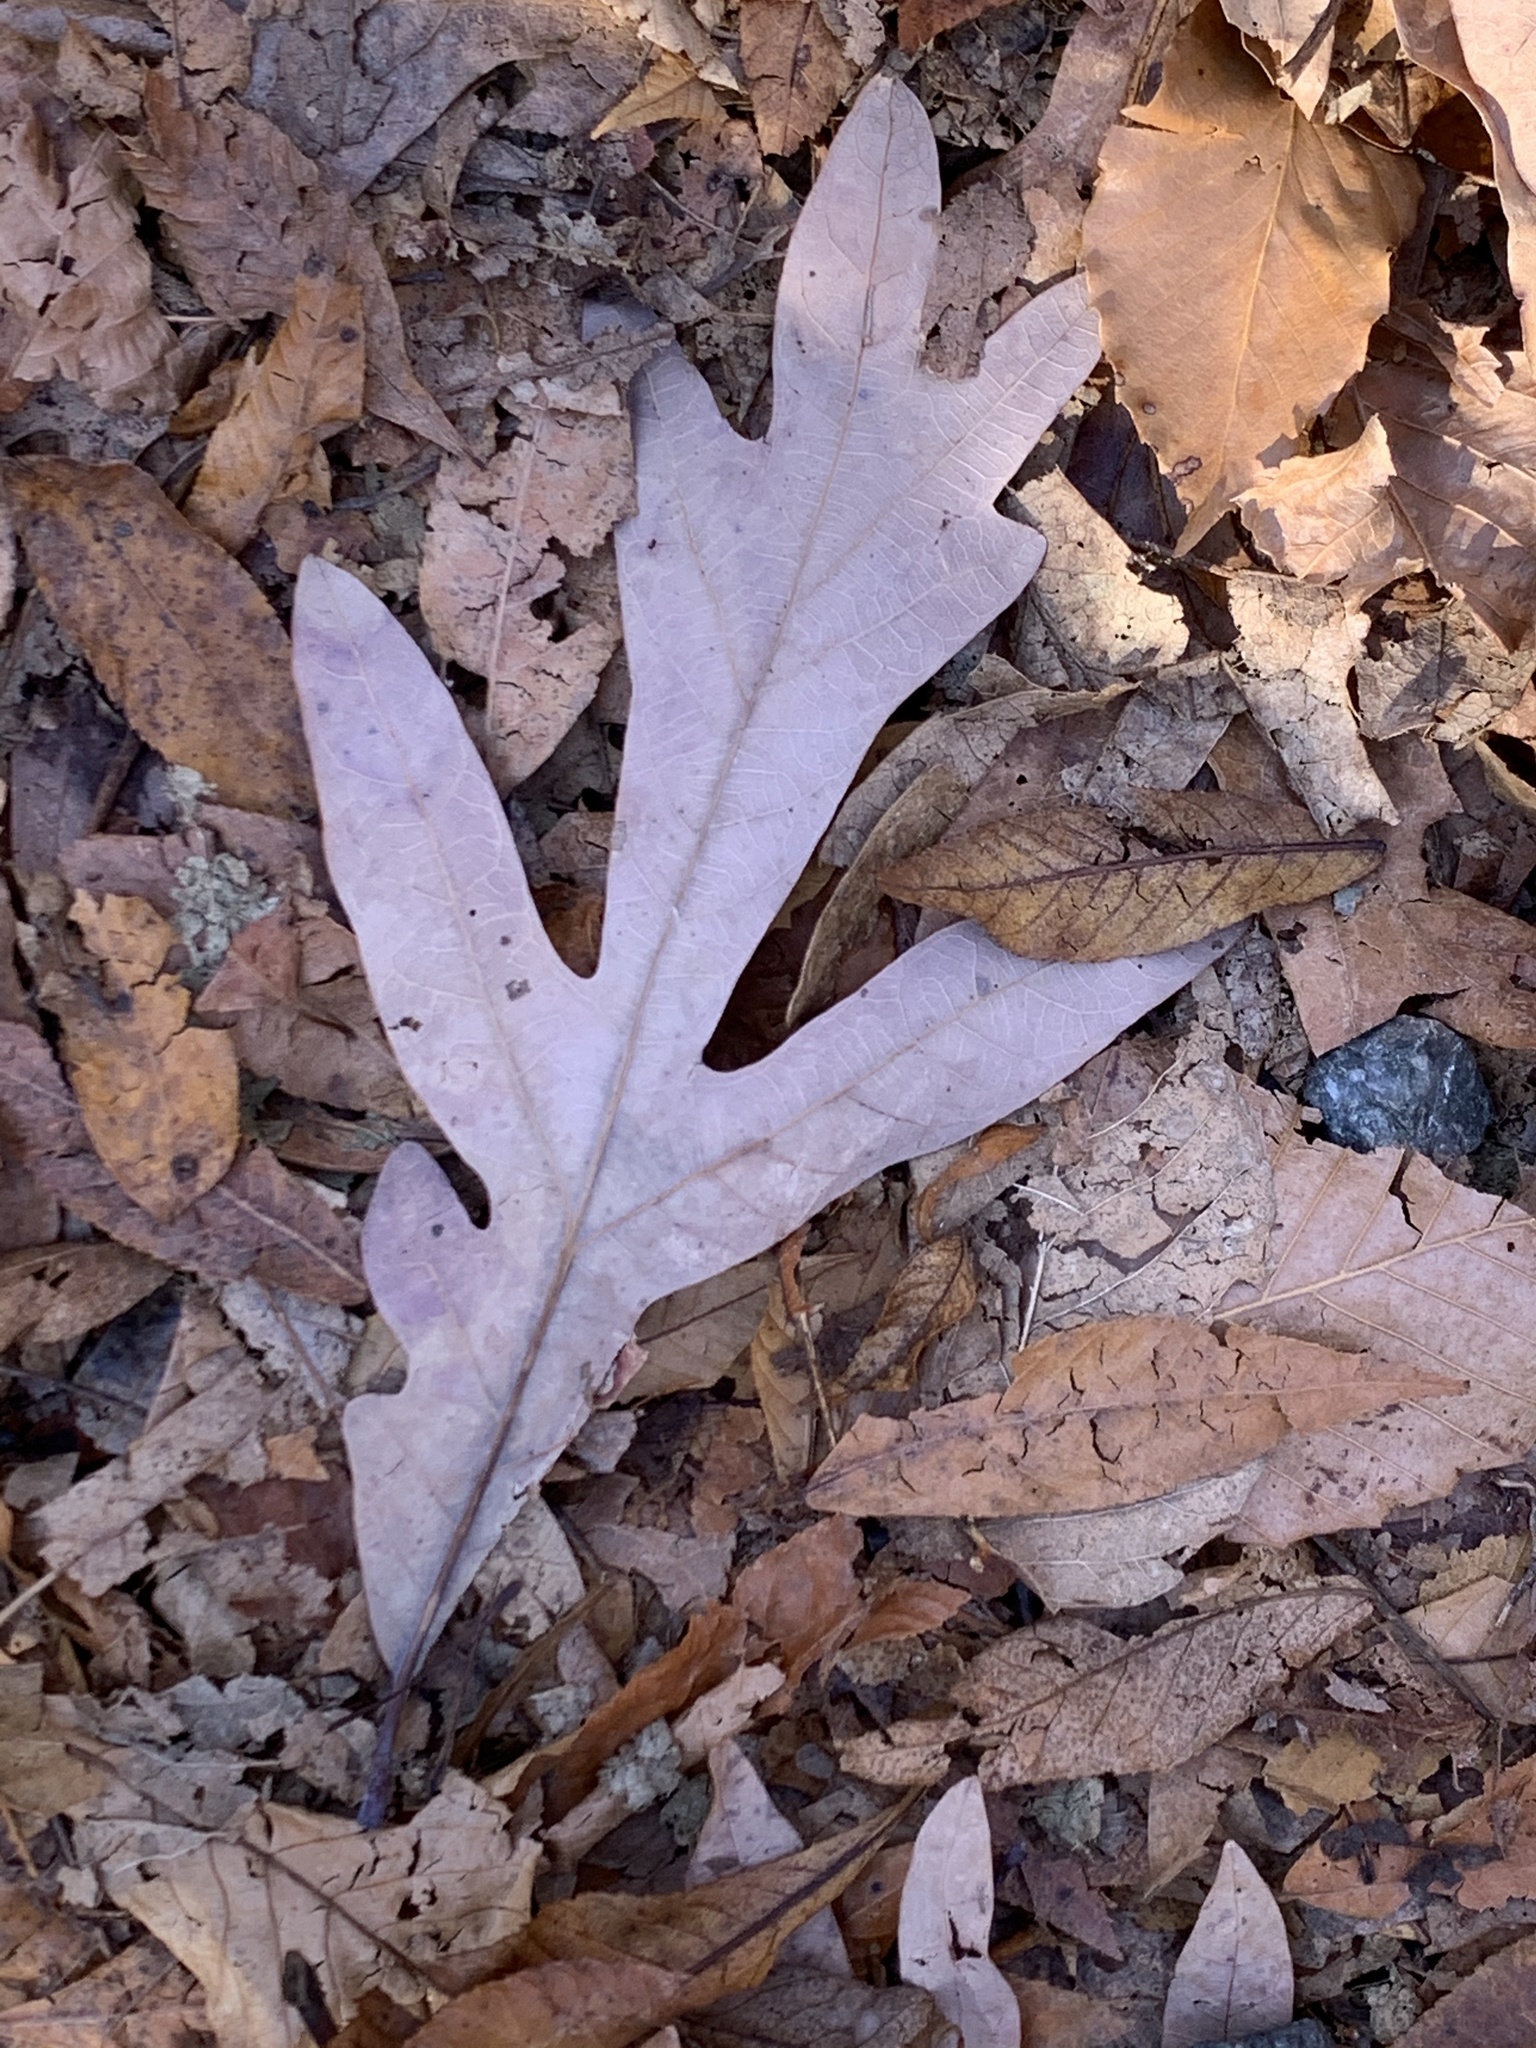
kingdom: Plantae
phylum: Tracheophyta
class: Magnoliopsida
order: Fagales
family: Fagaceae
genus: Quercus
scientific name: Quercus alba
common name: White oak
